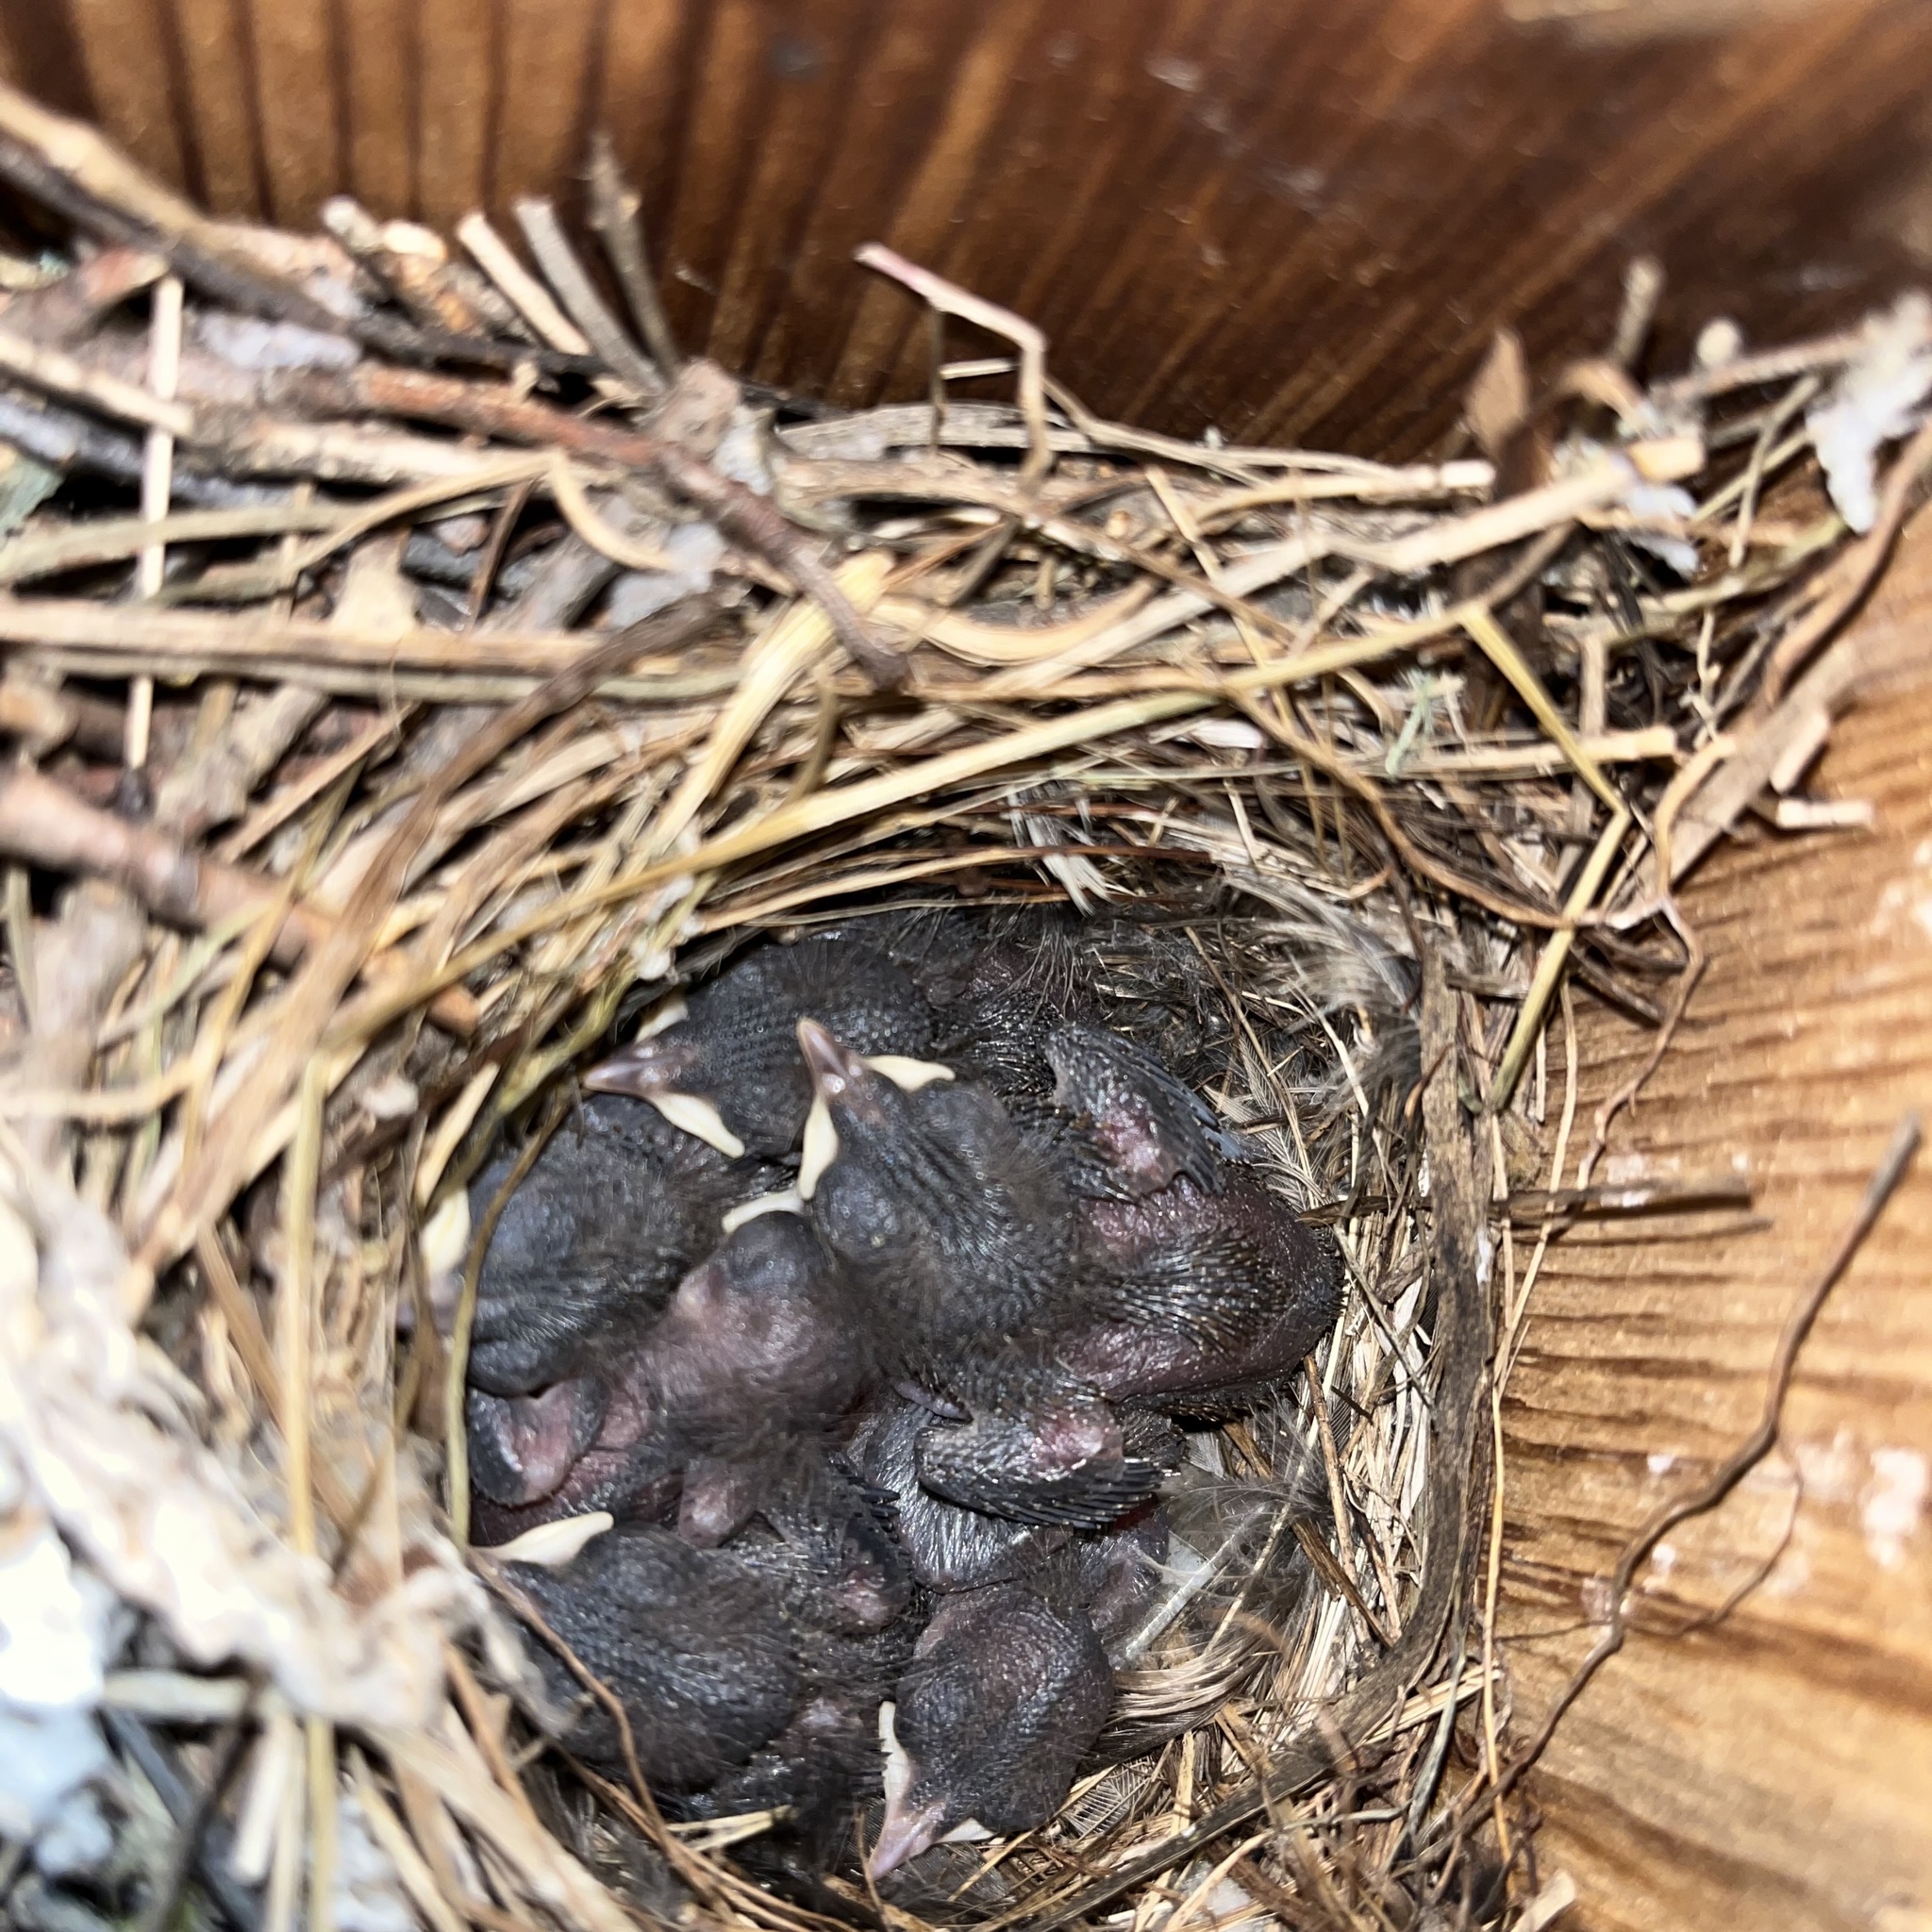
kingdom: Animalia
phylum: Chordata
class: Aves
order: Passeriformes
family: Troglodytidae
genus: Troglodytes
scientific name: Troglodytes aedon
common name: House wren
